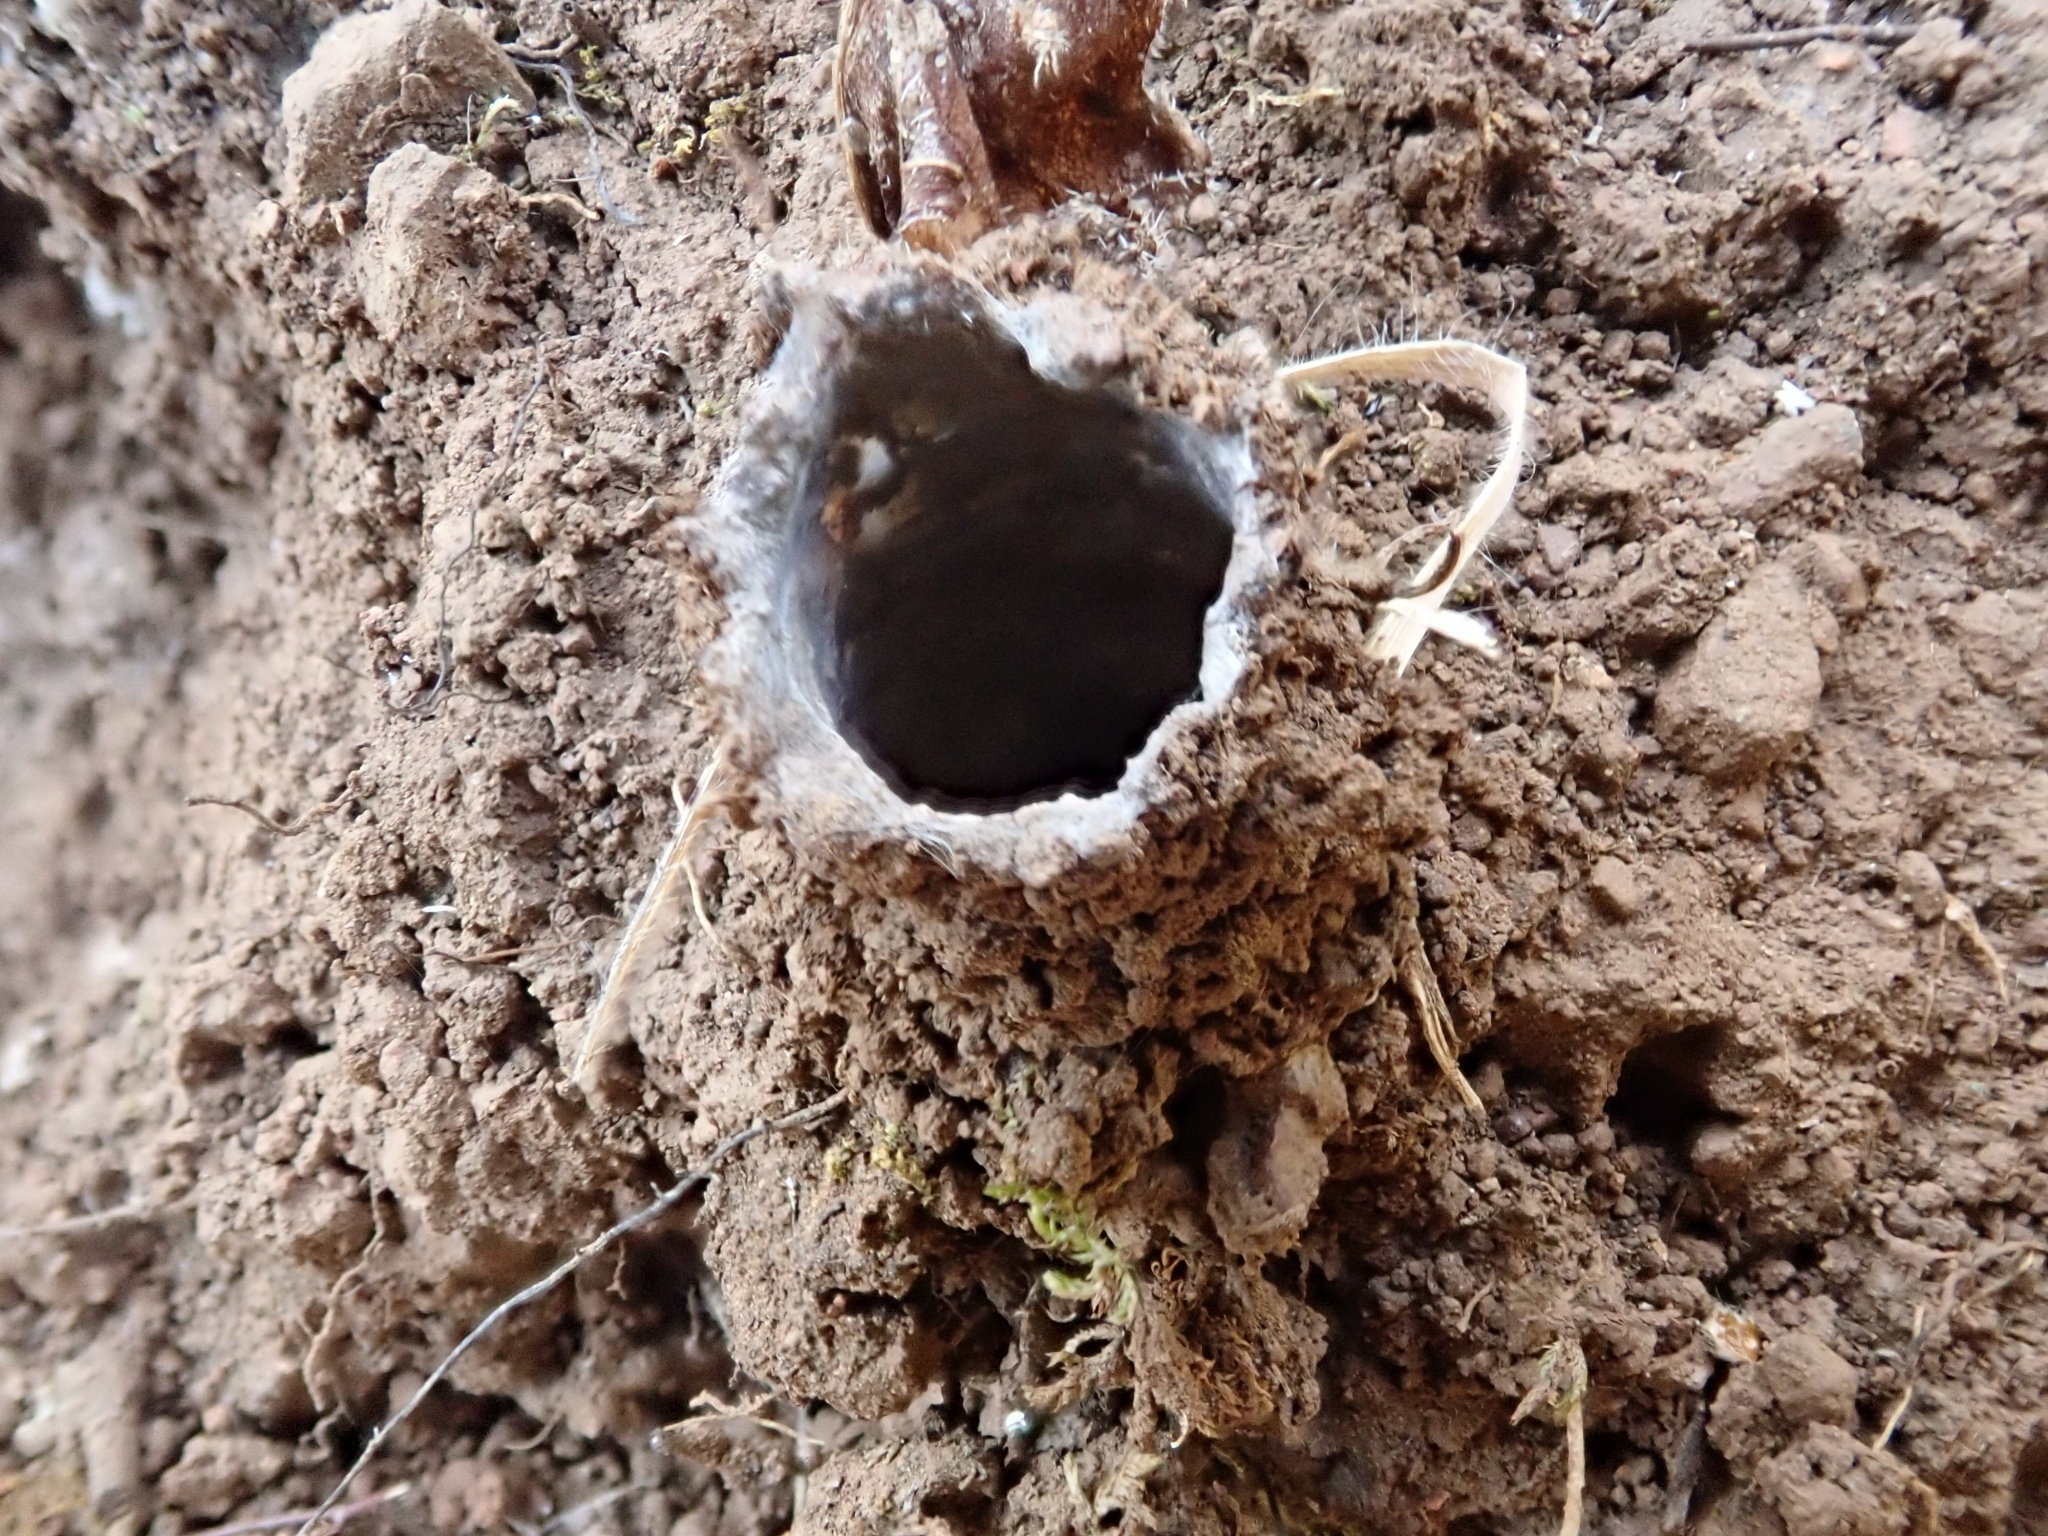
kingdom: Animalia
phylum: Arthropoda
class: Arachnida
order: Araneae
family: Antrodiaetidae
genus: Atypoides
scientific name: Atypoides riversi
